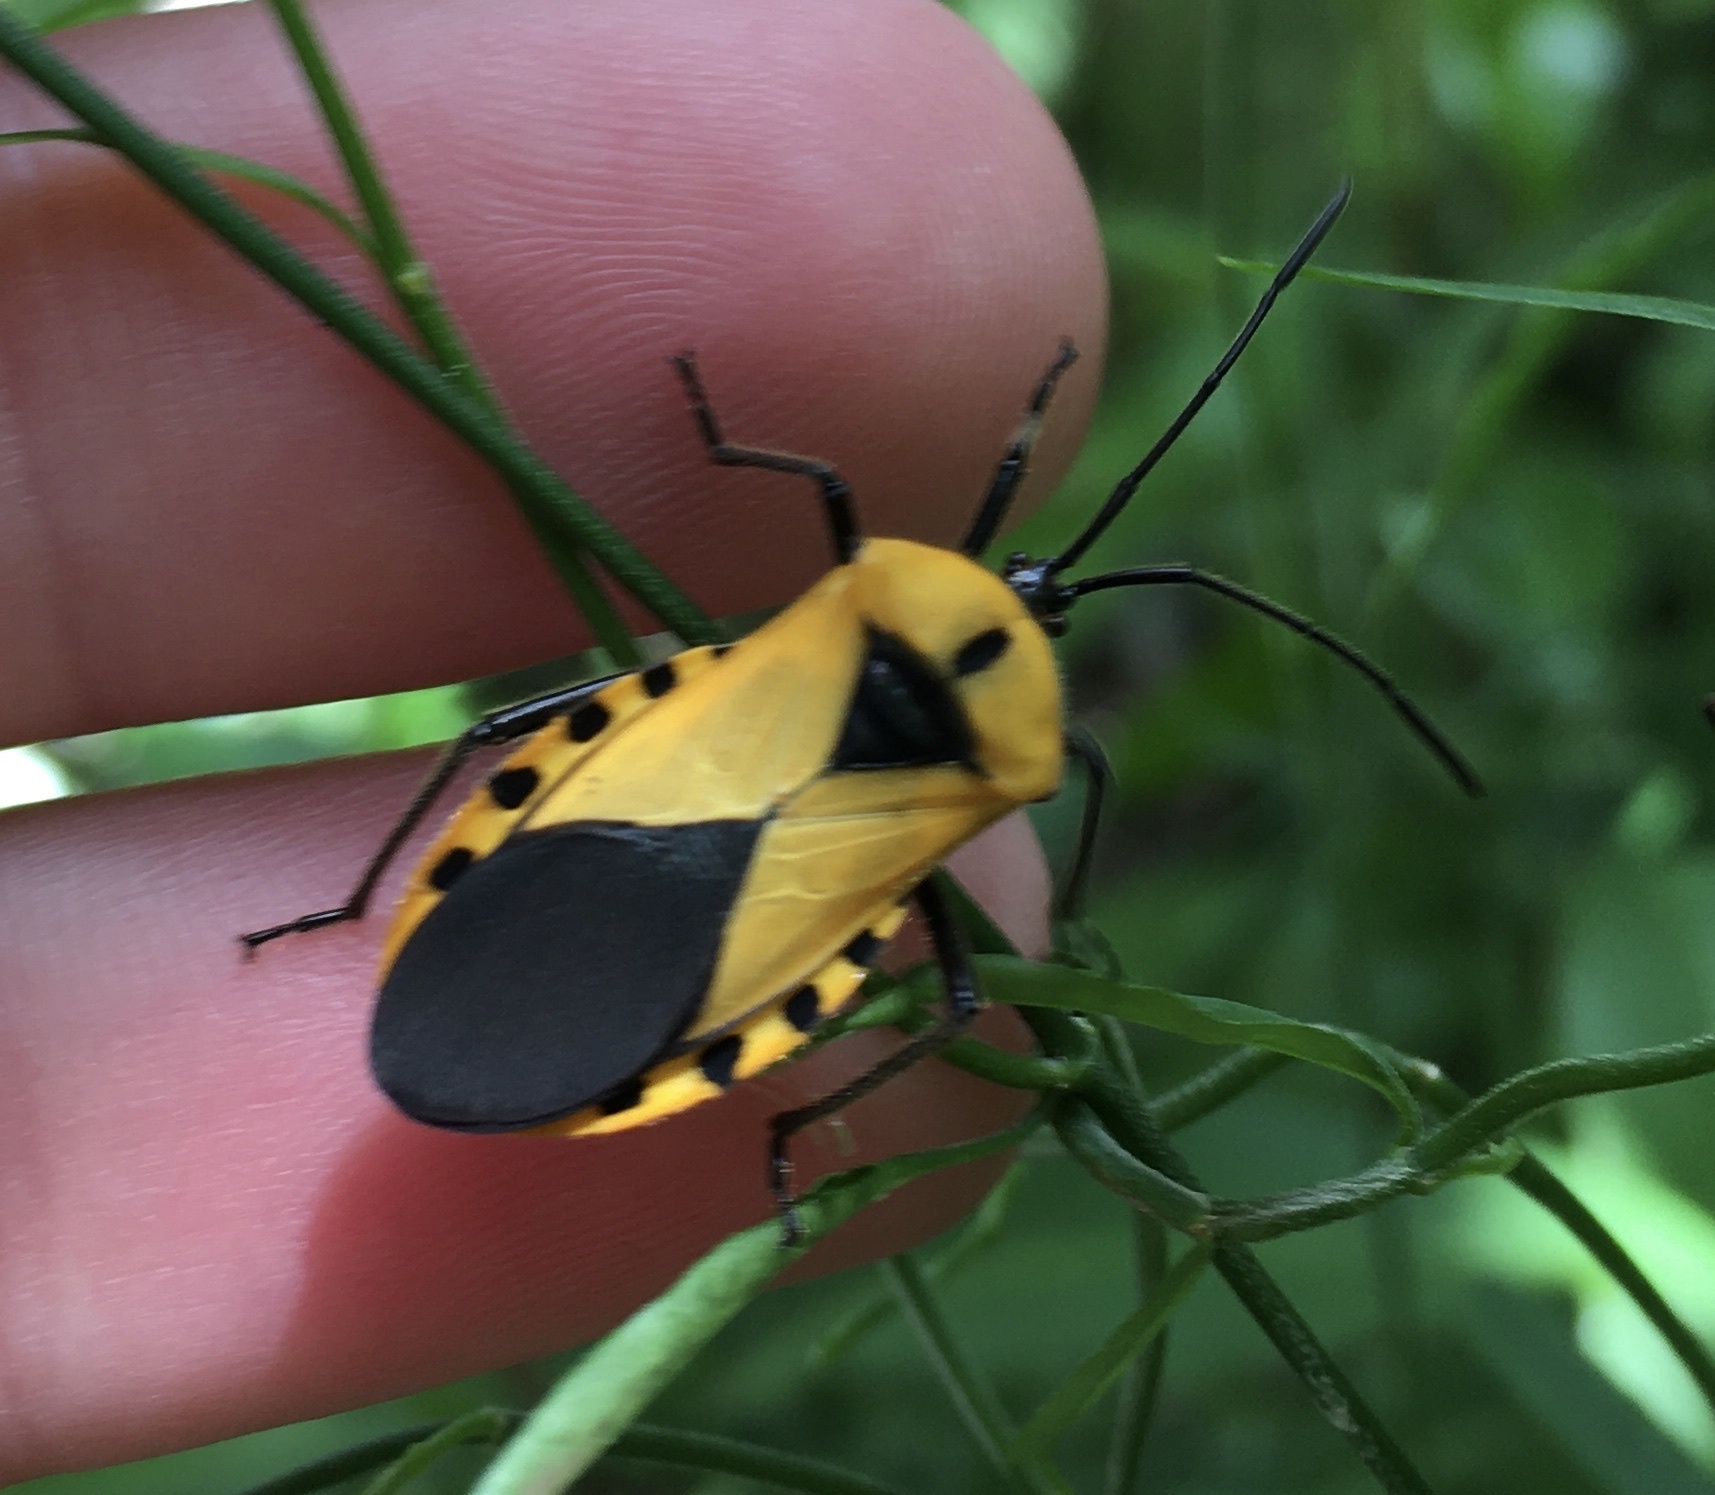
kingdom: Animalia
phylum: Arthropoda
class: Insecta
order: Hemiptera
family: Coreidae
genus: Sephina
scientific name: Sephina gundlachii
